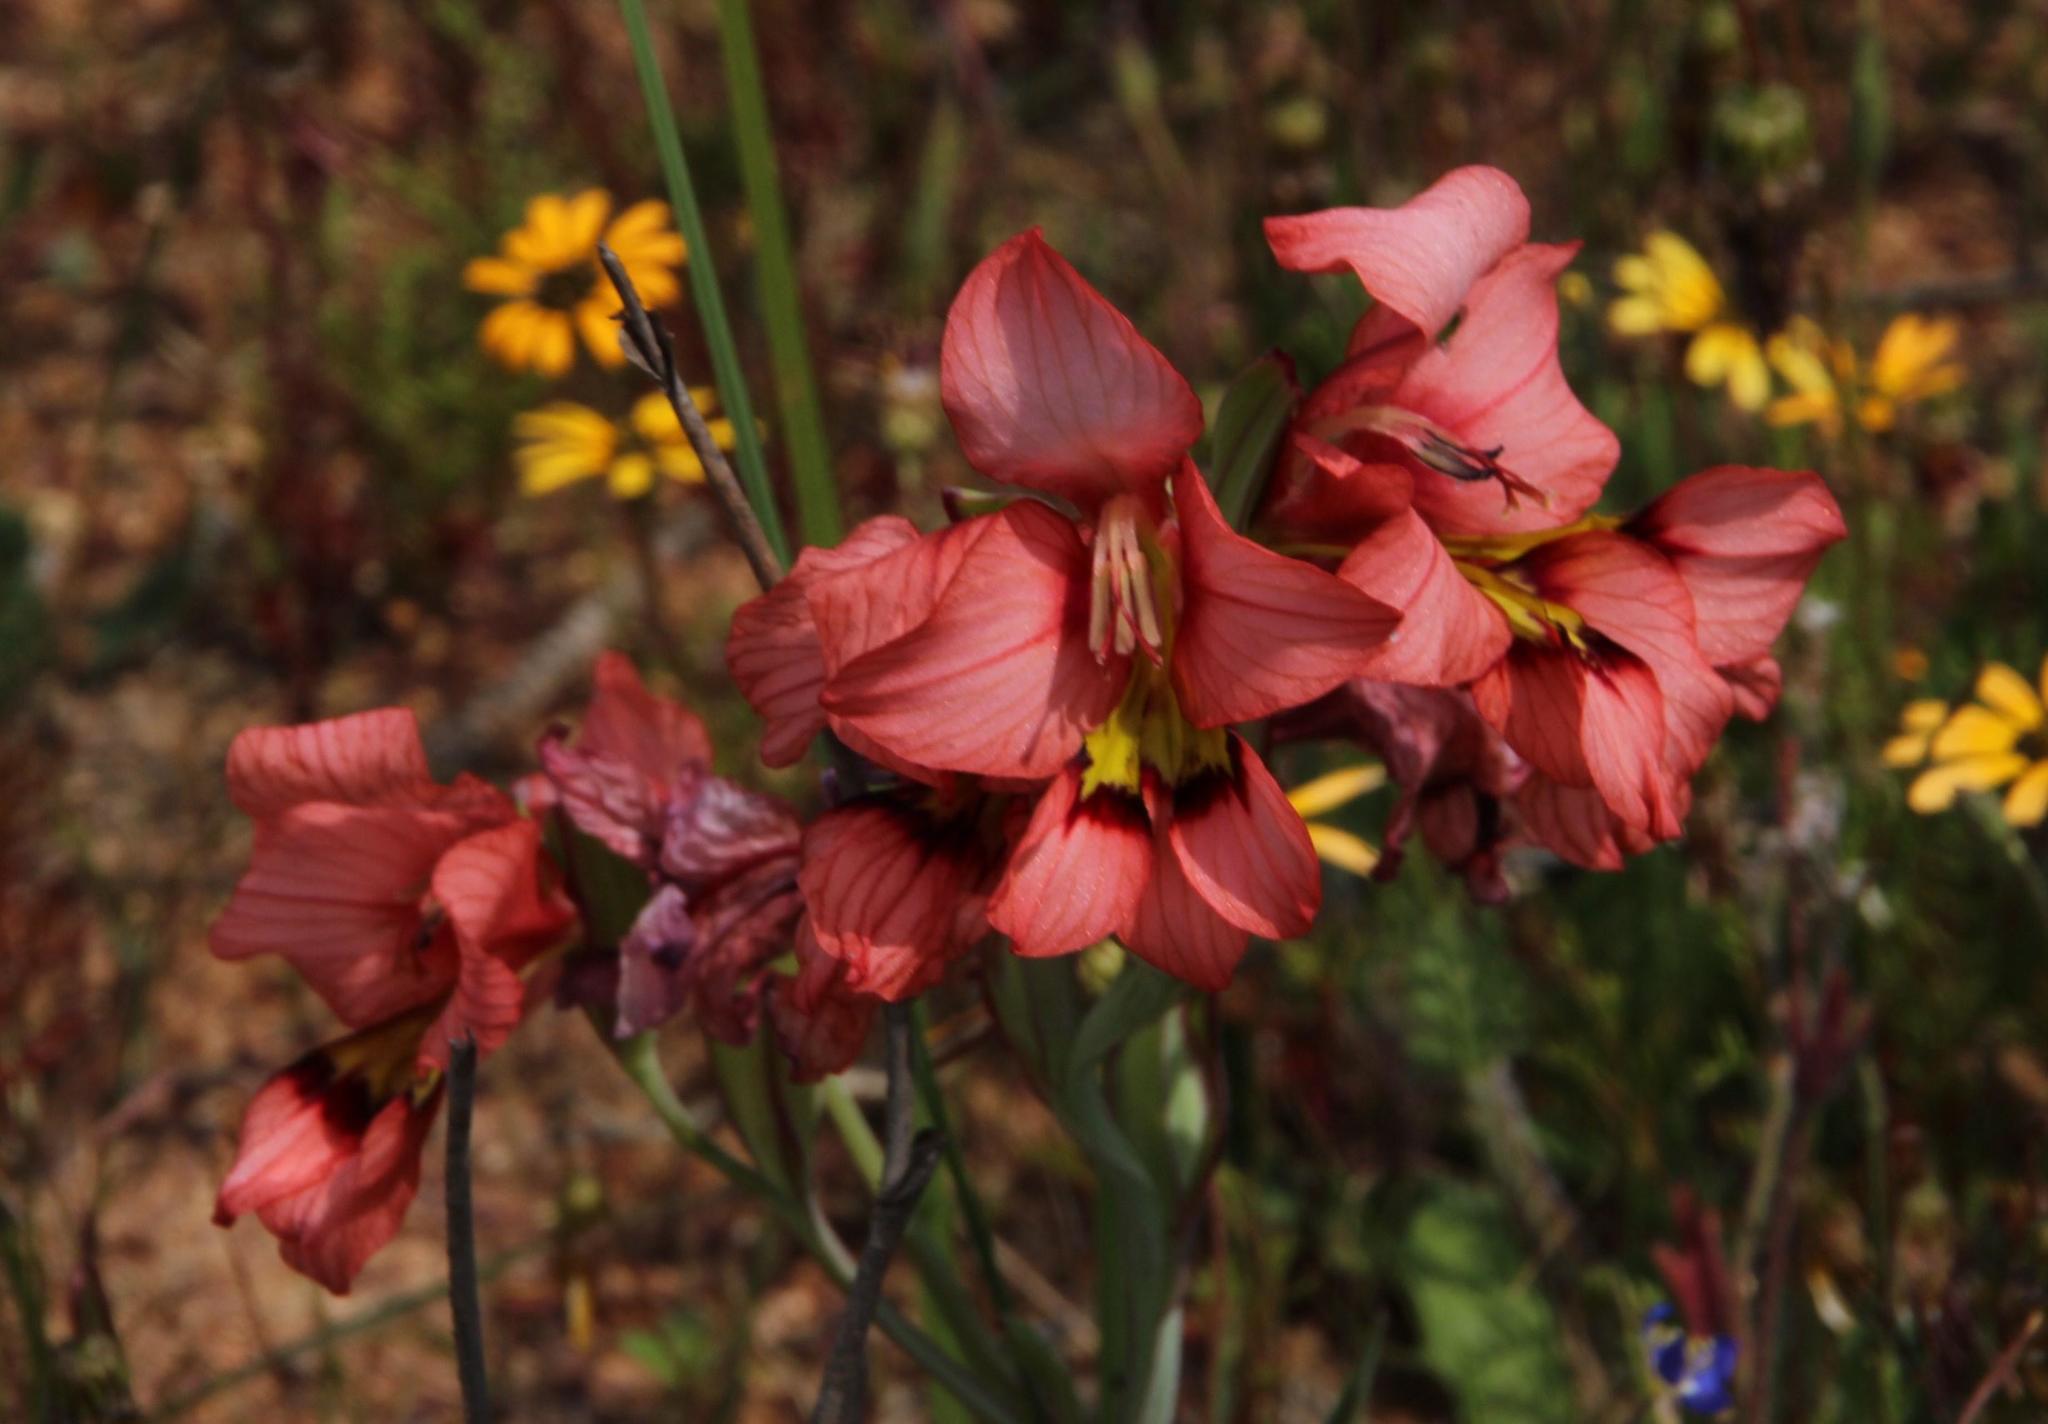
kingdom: Plantae
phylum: Tracheophyta
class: Liliopsida
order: Asparagales
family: Iridaceae
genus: Gladiolus
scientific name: Gladiolus meliusculus
